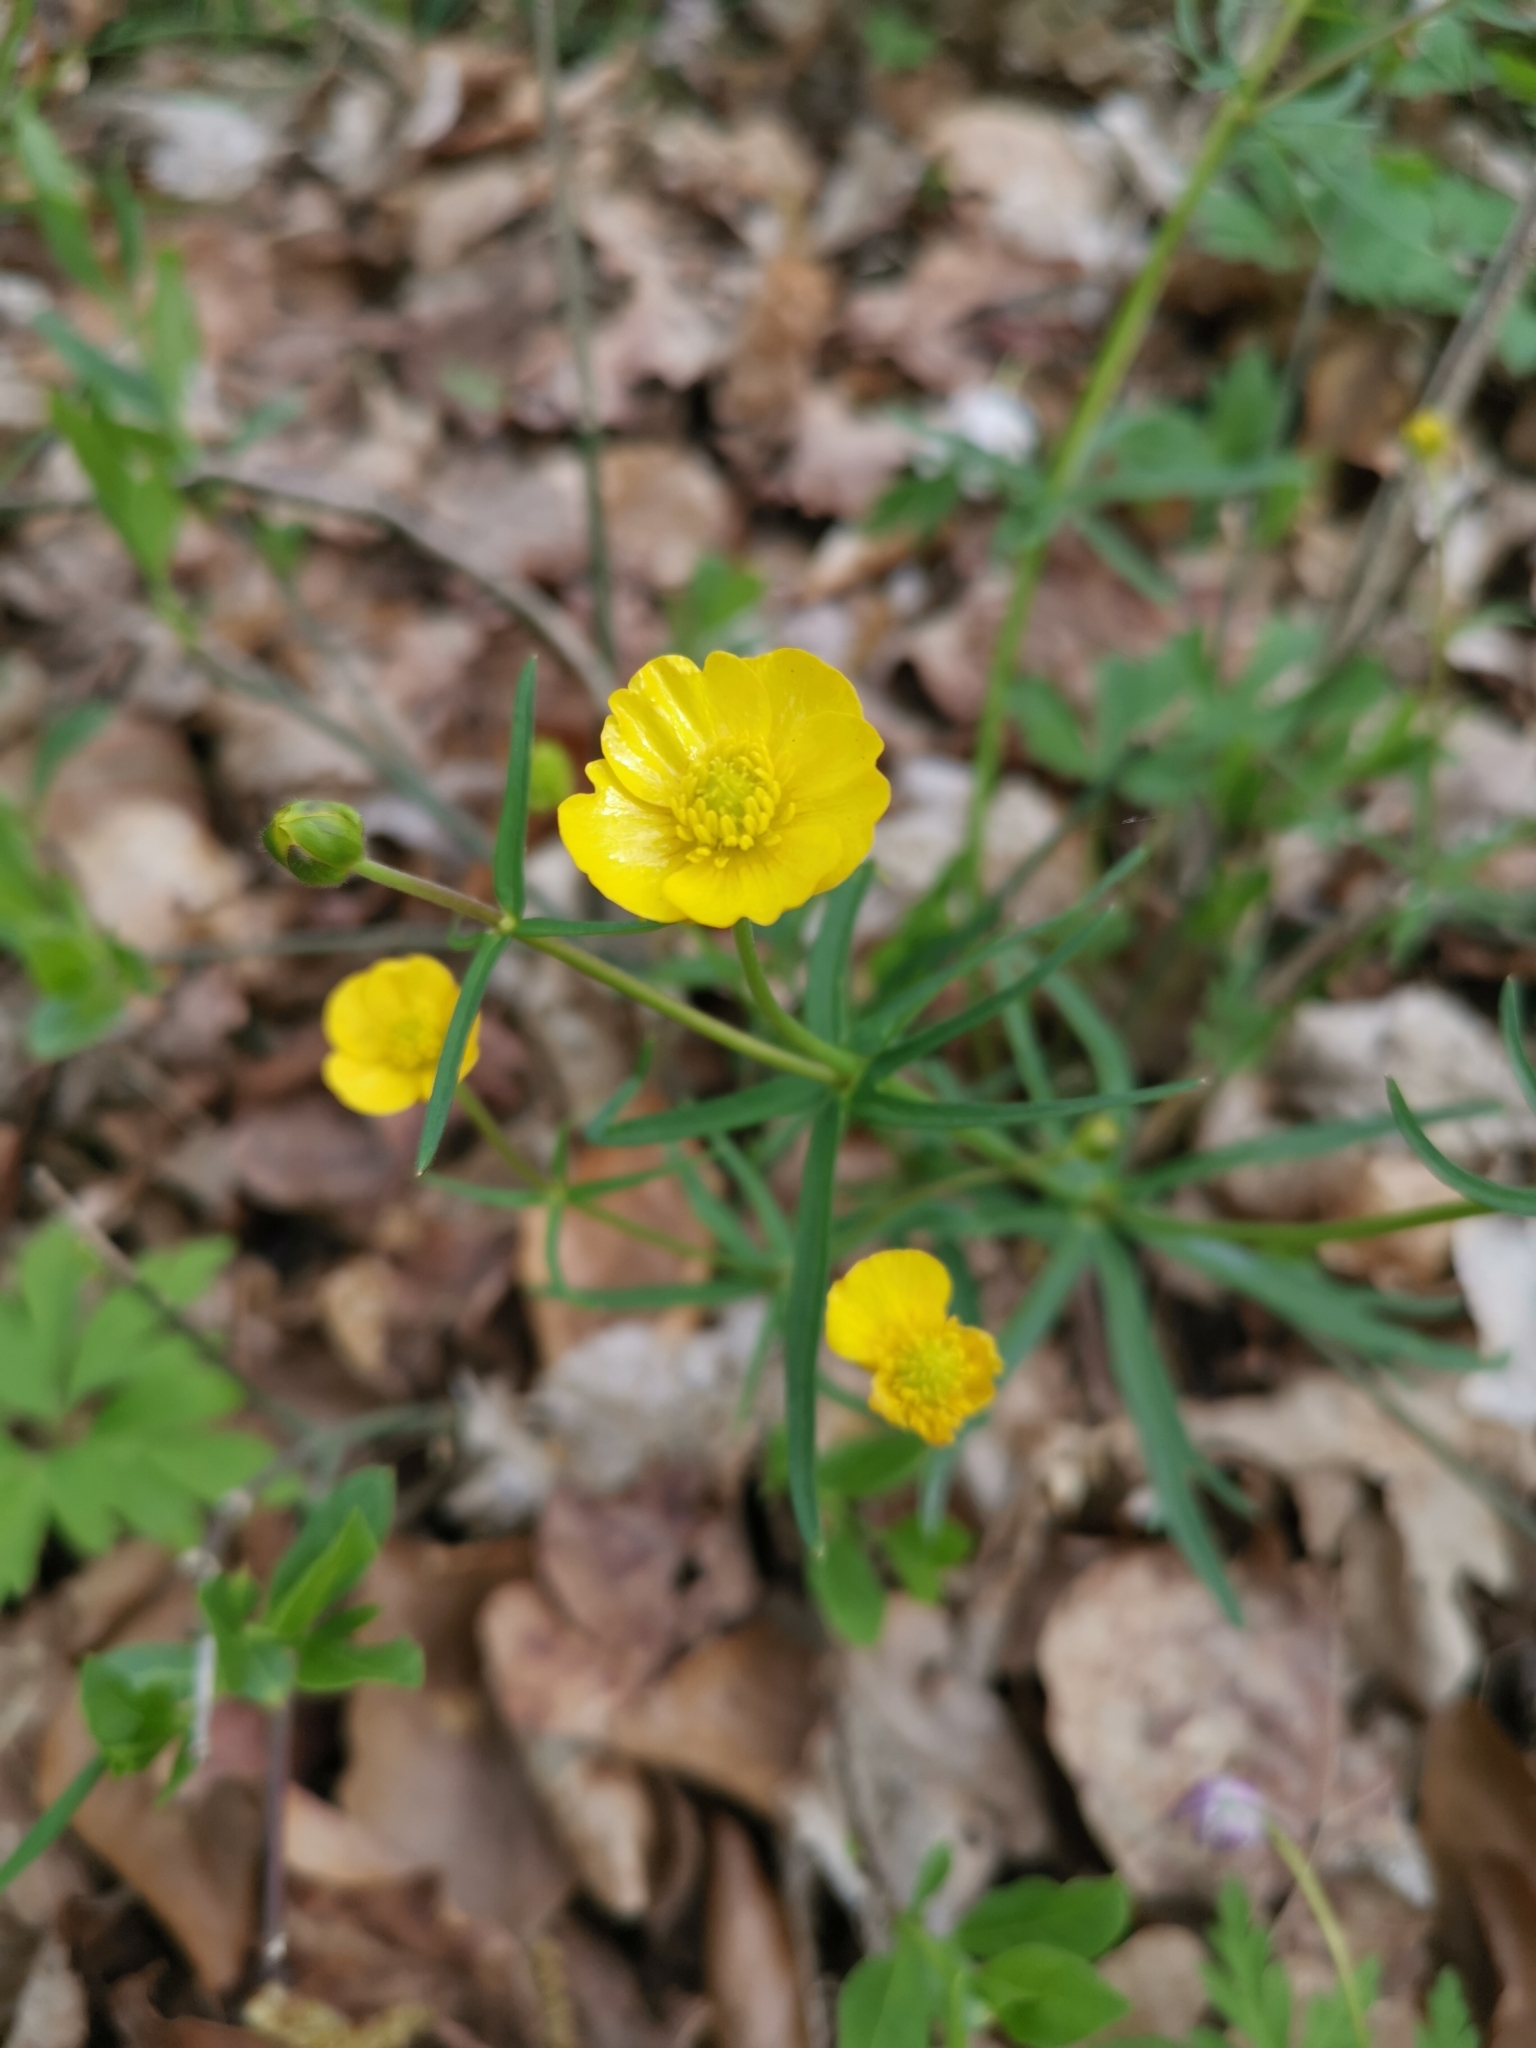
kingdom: Plantae
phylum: Tracheophyta
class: Magnoliopsida
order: Ranunculales
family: Ranunculaceae
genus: Ranunculus
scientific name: Ranunculus auricomus
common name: Goldilocks buttercup
